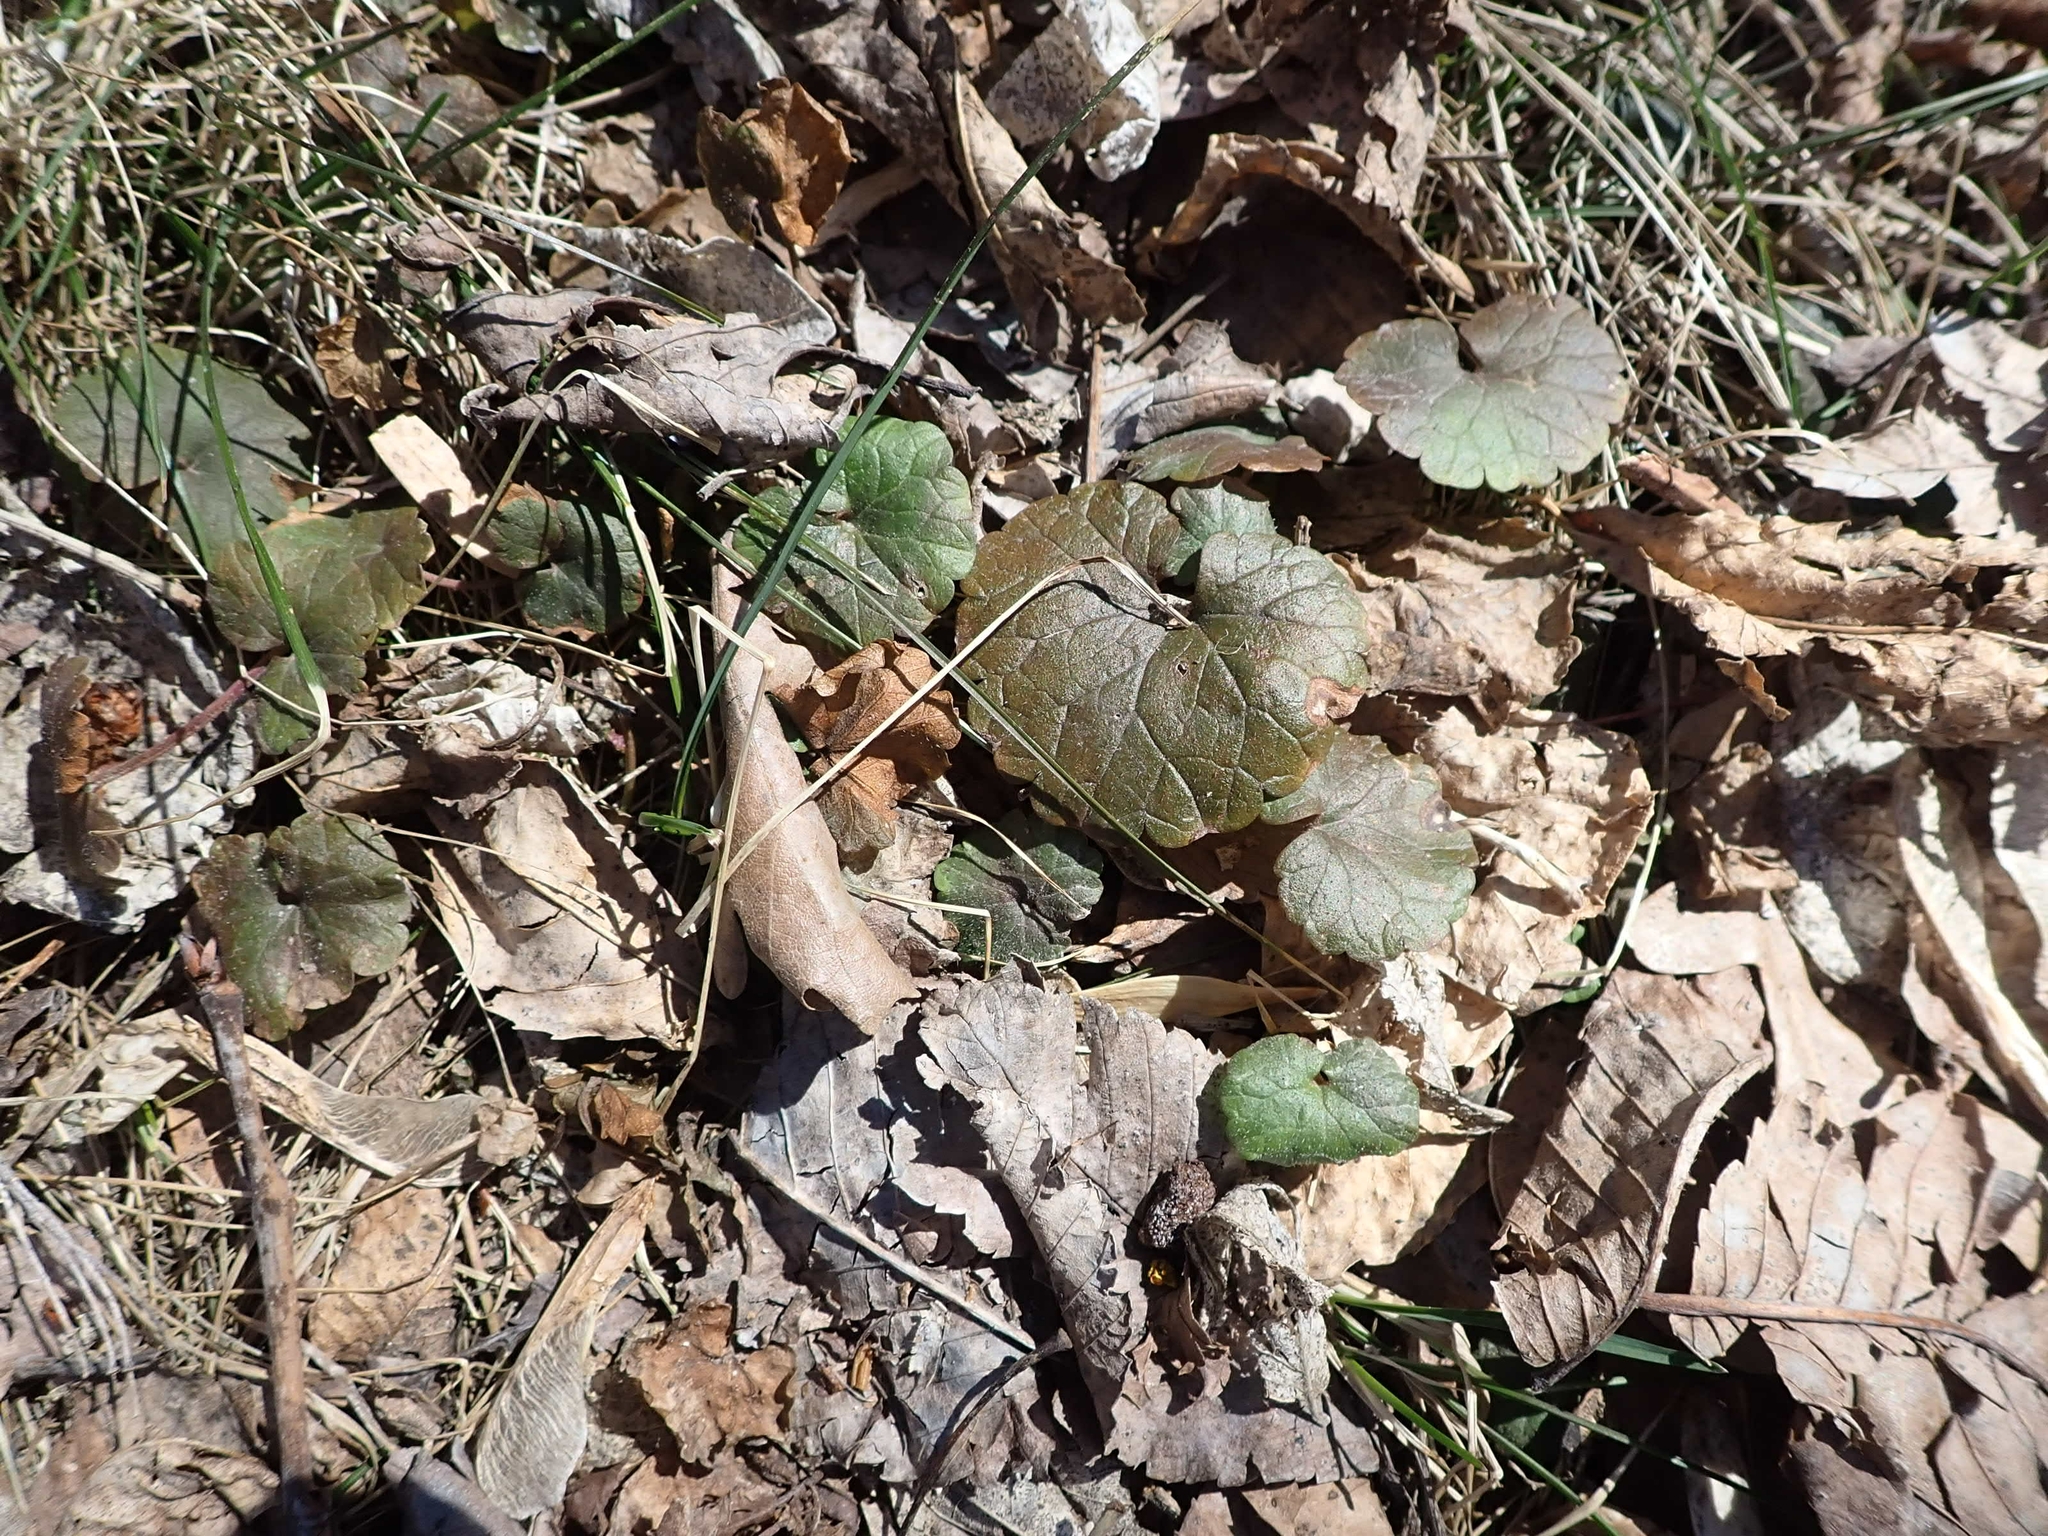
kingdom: Plantae
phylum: Tracheophyta
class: Magnoliopsida
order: Lamiales
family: Lamiaceae
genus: Glechoma
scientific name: Glechoma hederacea
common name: Ground ivy
